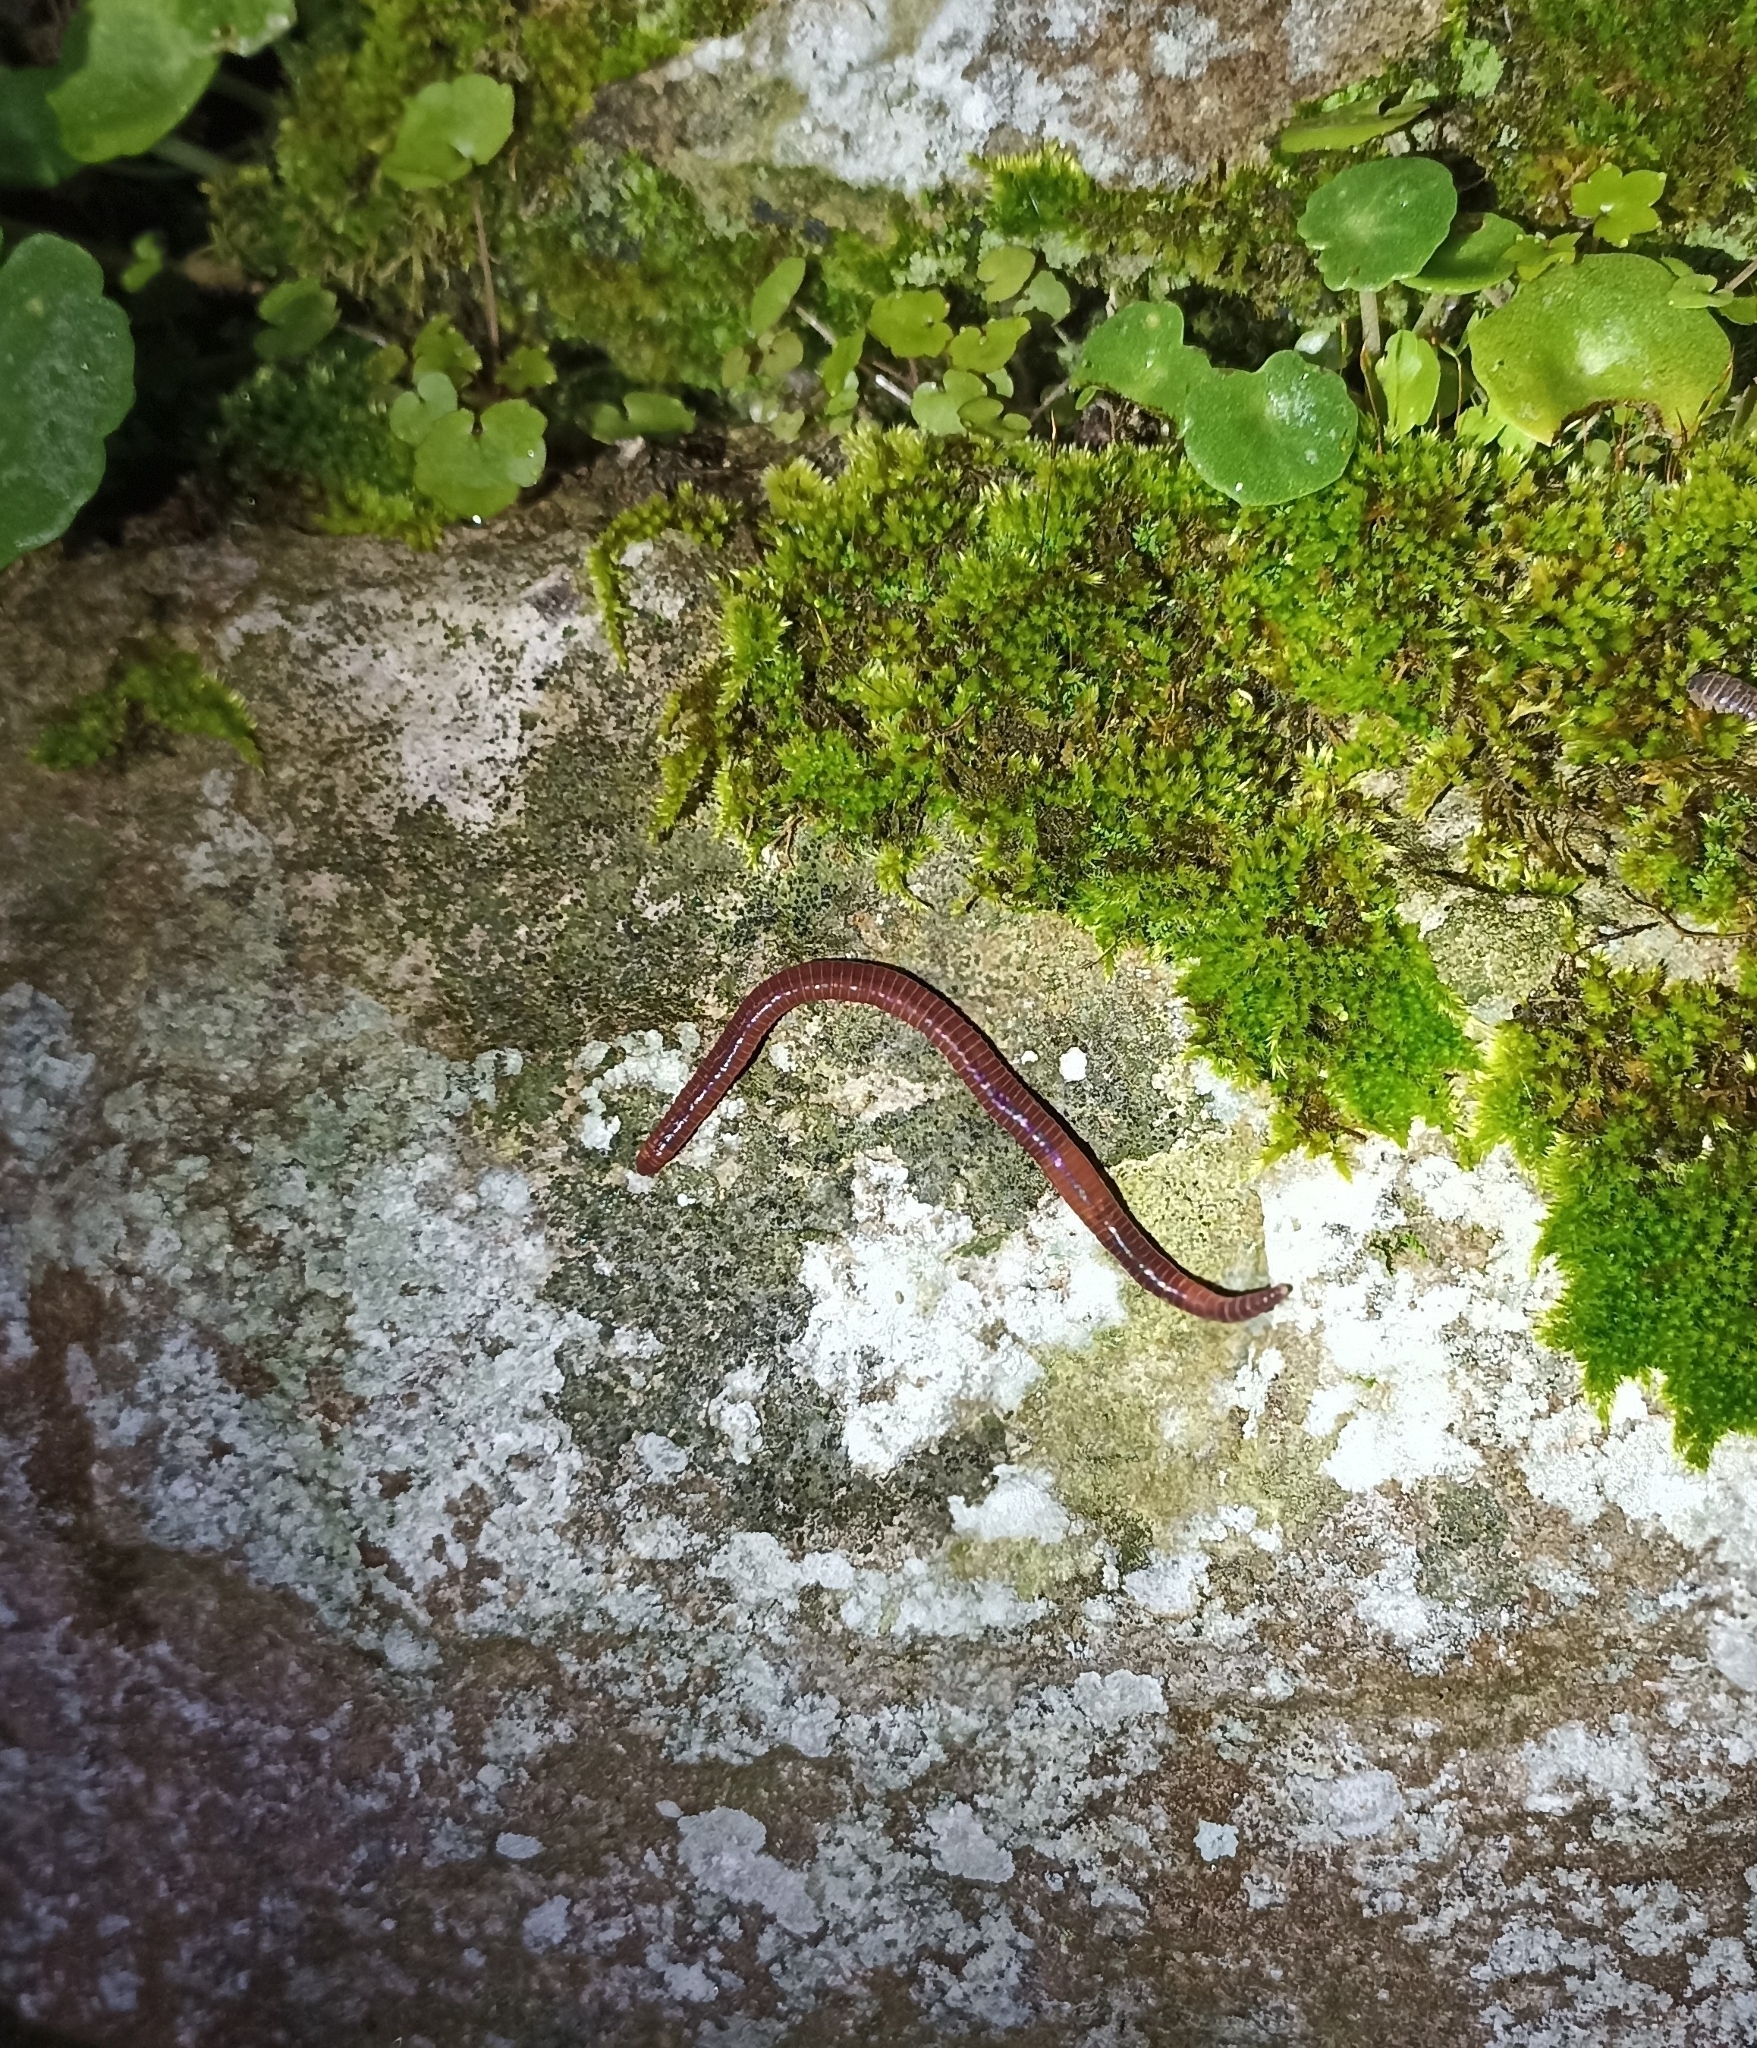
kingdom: Animalia
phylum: Annelida
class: Clitellata
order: Crassiclitellata
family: Lumbricidae
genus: Eisenia
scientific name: Eisenia fetida
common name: Red wiggler
